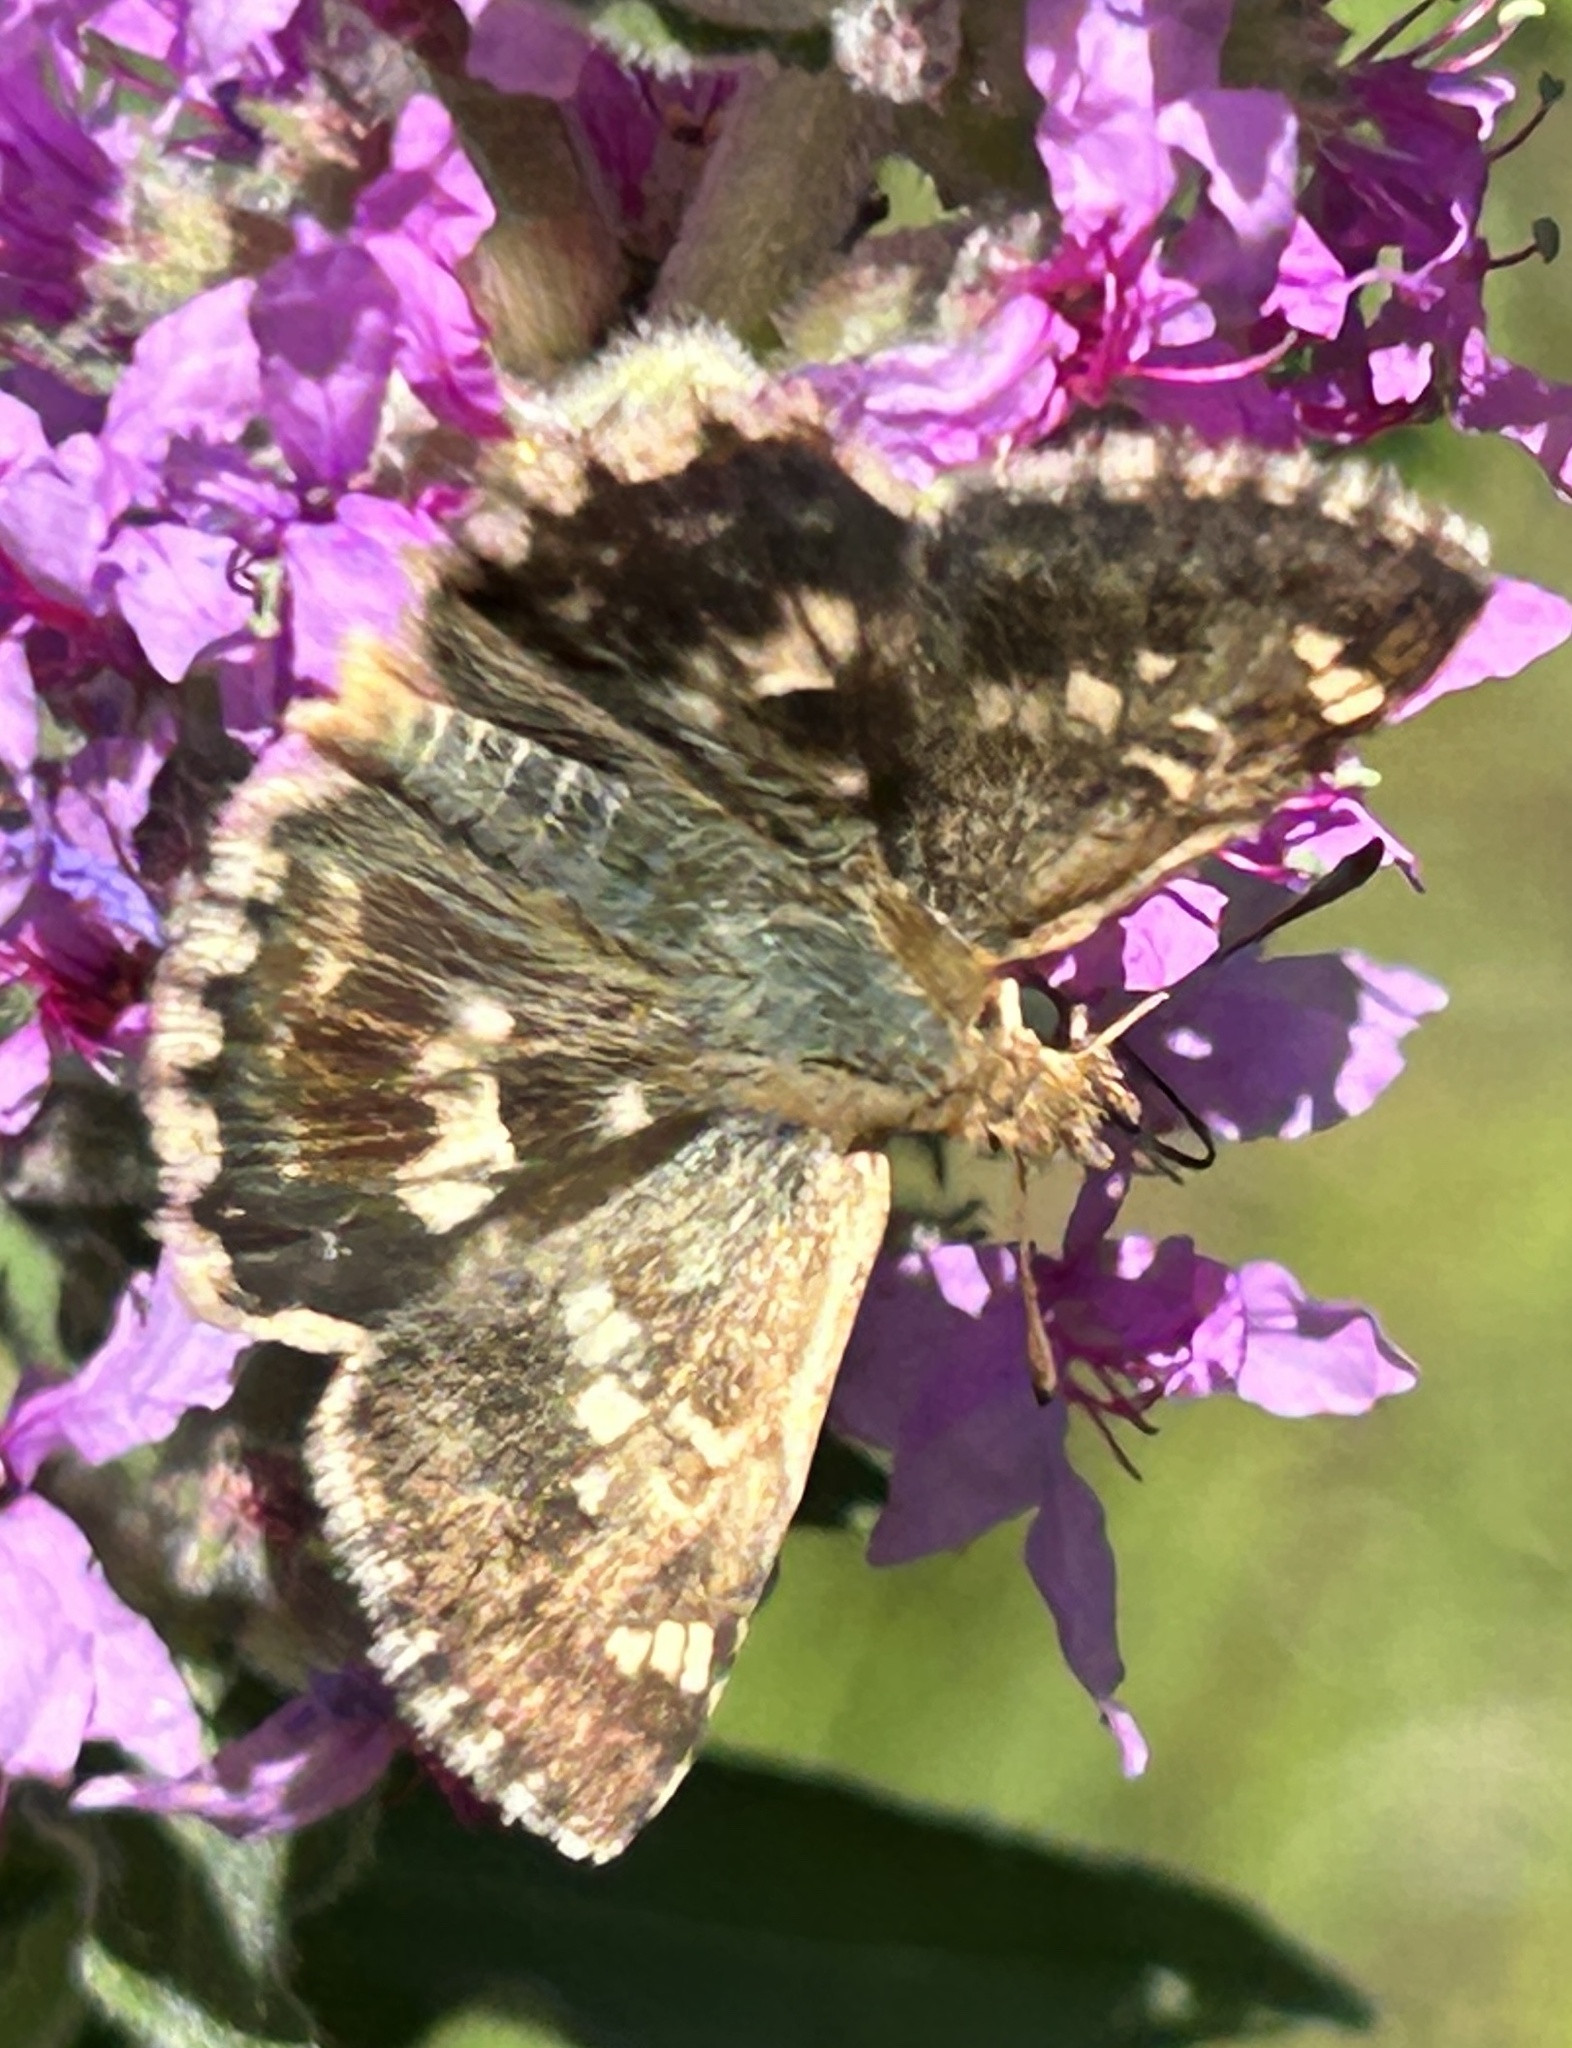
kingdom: Animalia
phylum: Arthropoda
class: Insecta
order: Lepidoptera
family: Hesperiidae
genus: Syrichtus
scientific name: Syrichtus proto
